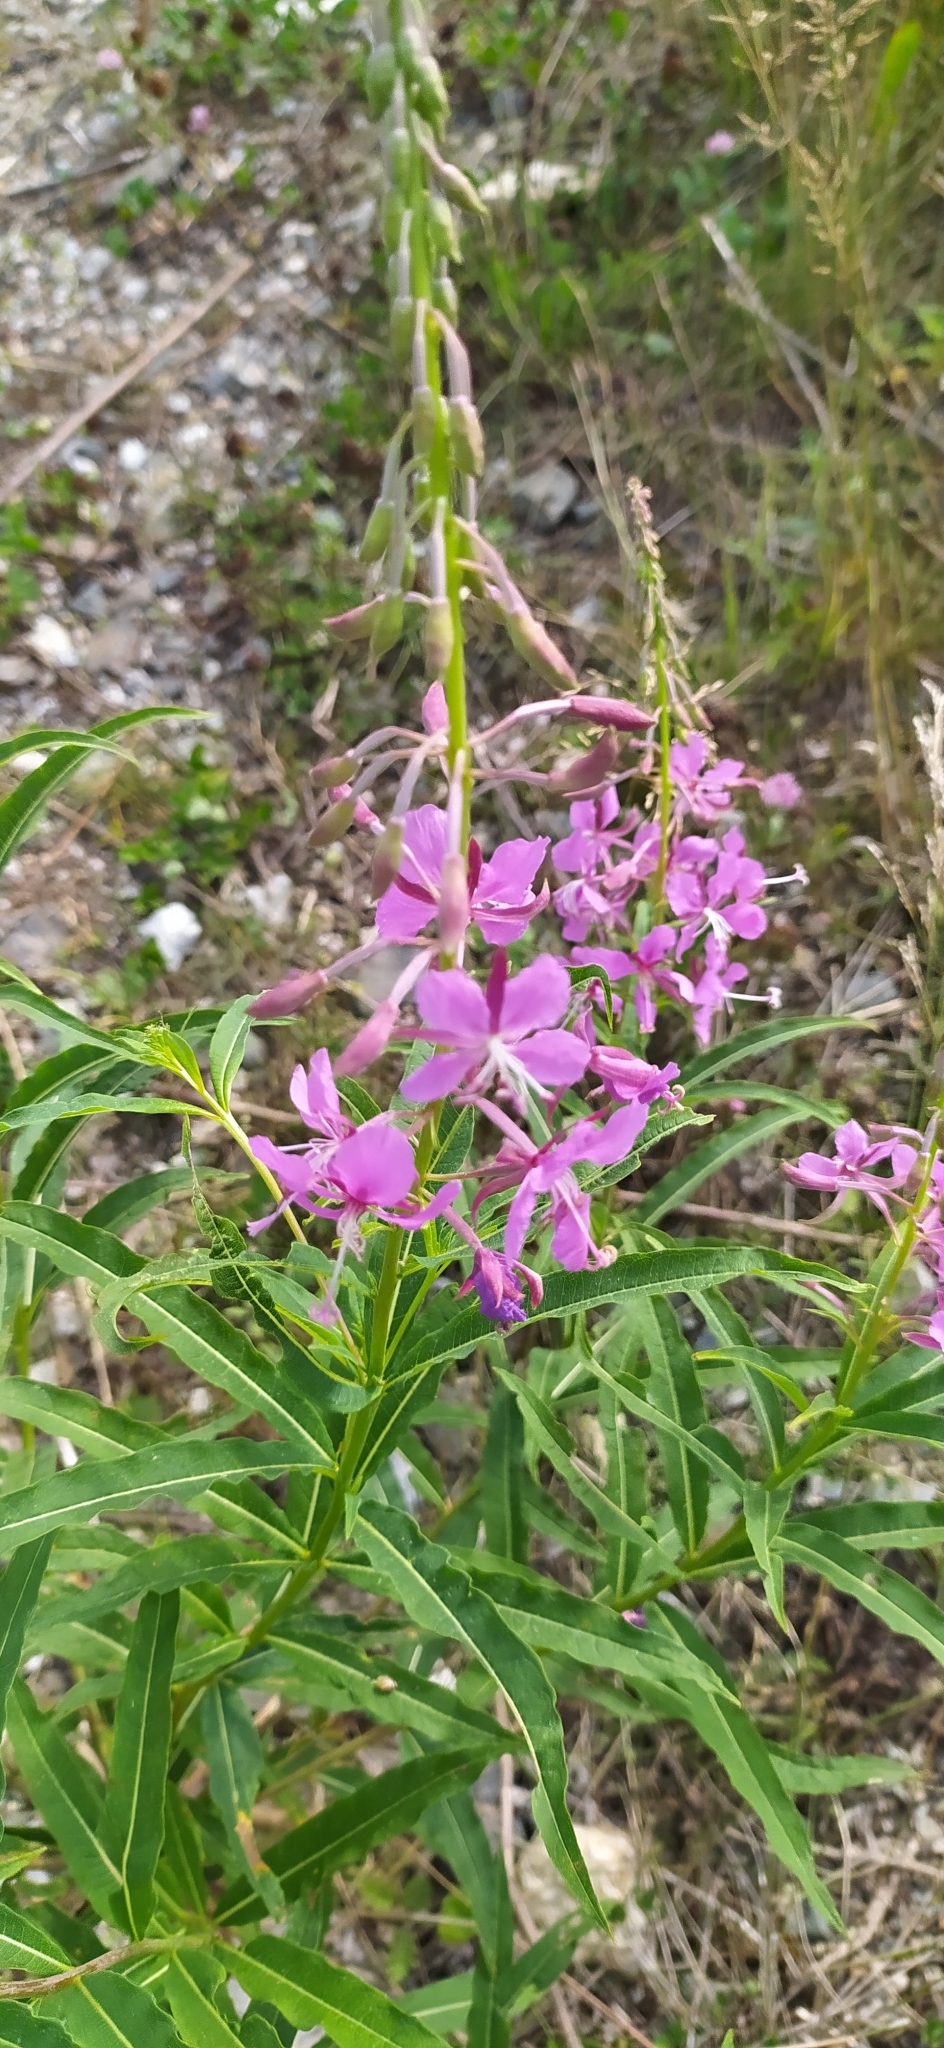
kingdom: Plantae
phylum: Tracheophyta
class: Magnoliopsida
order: Myrtales
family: Onagraceae
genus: Chamaenerion
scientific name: Chamaenerion angustifolium
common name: Fireweed
